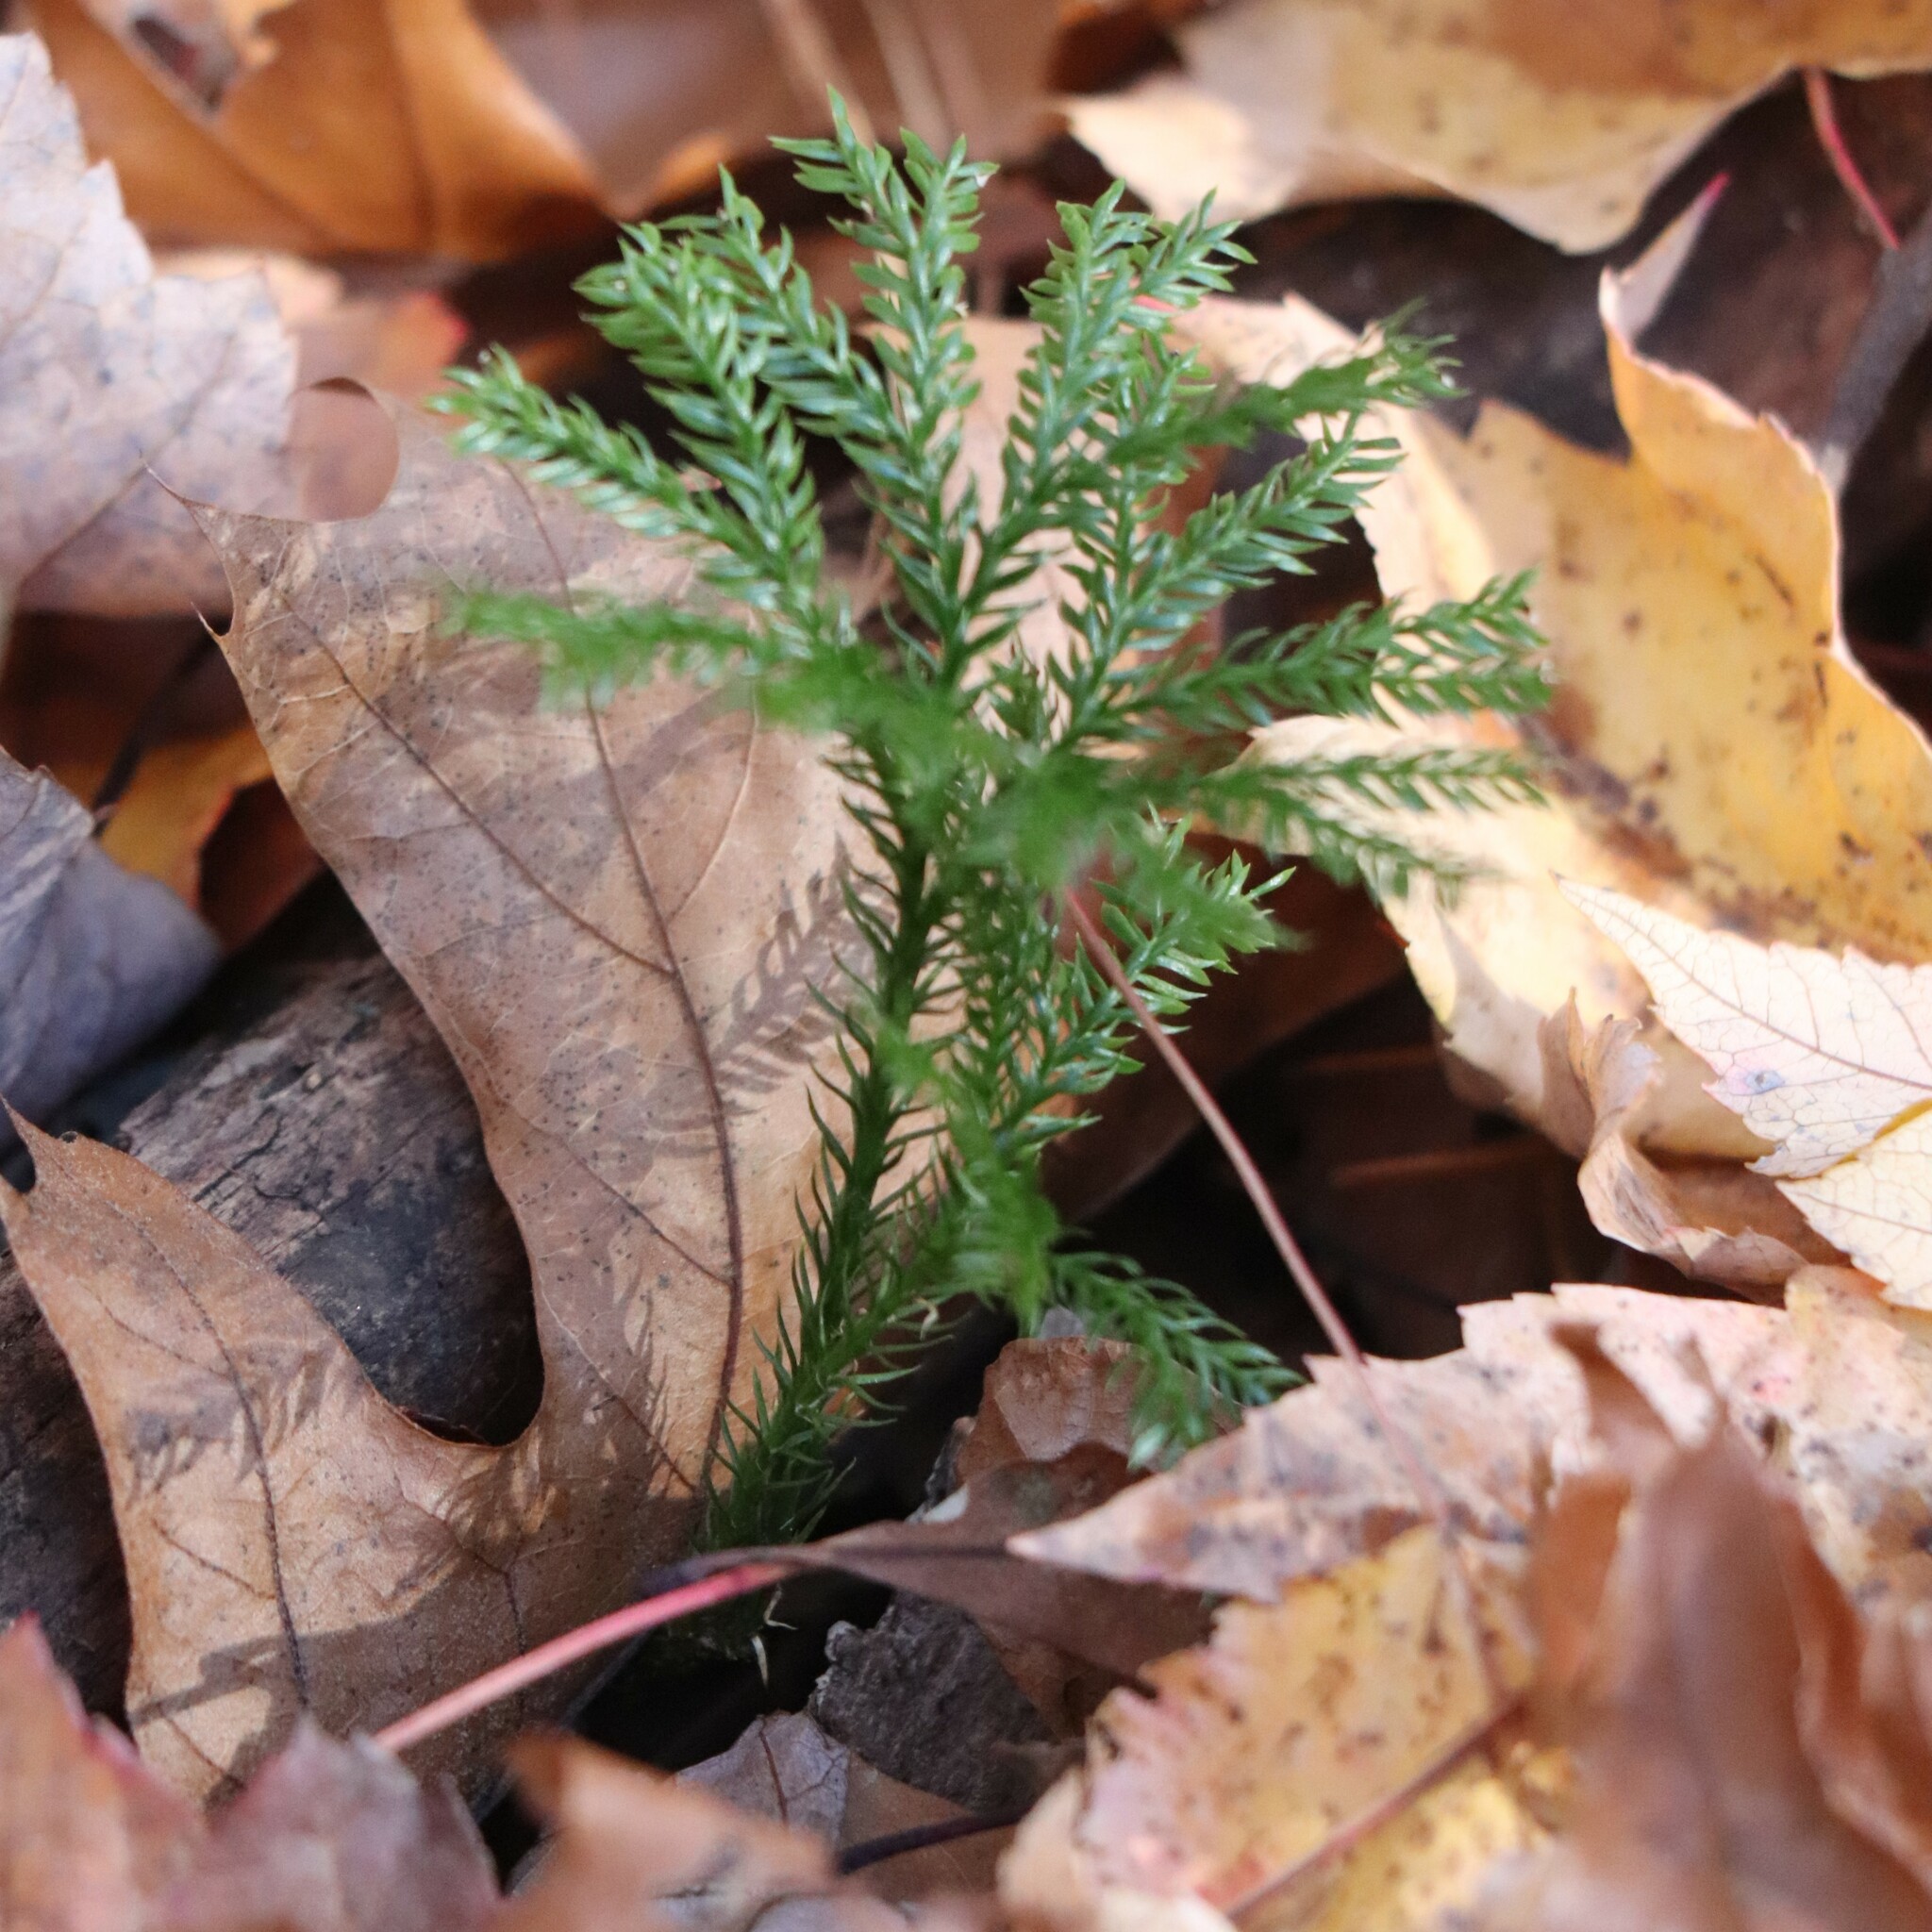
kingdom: Plantae
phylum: Tracheophyta
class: Lycopodiopsida
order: Lycopodiales
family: Lycopodiaceae
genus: Dendrolycopodium
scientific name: Dendrolycopodium dendroideum
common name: Northern tree-clubmoss
